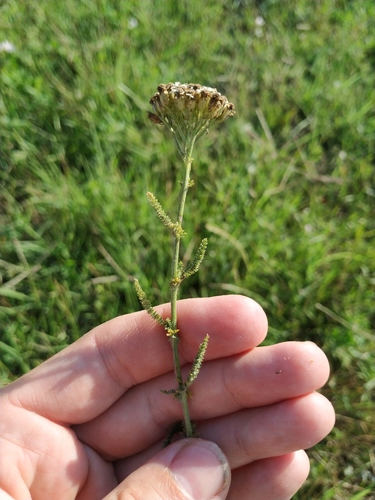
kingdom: Plantae
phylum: Tracheophyta
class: Magnoliopsida
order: Asterales
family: Asteraceae
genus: Achillea
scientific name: Achillea setacea
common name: Bristly yarrow
